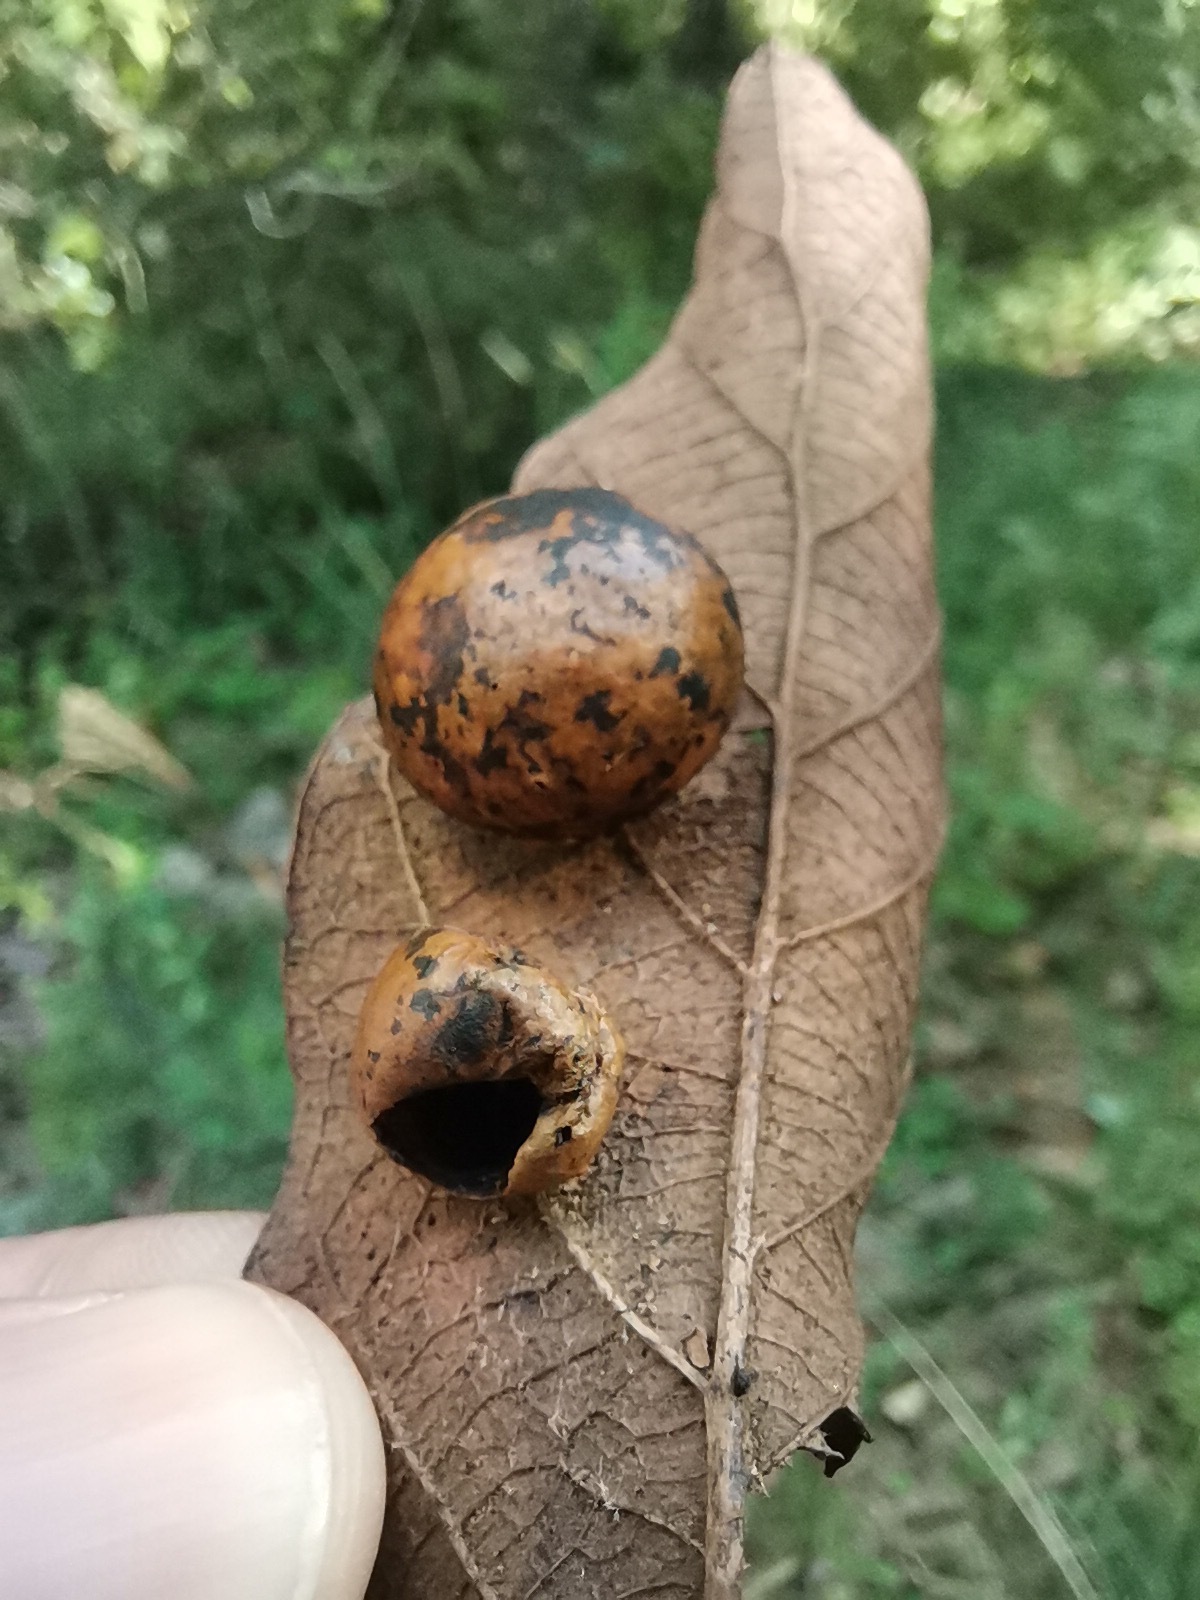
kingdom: Plantae
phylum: Tracheophyta
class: Magnoliopsida
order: Fagales
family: Fagaceae
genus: Quercus
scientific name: Quercus
